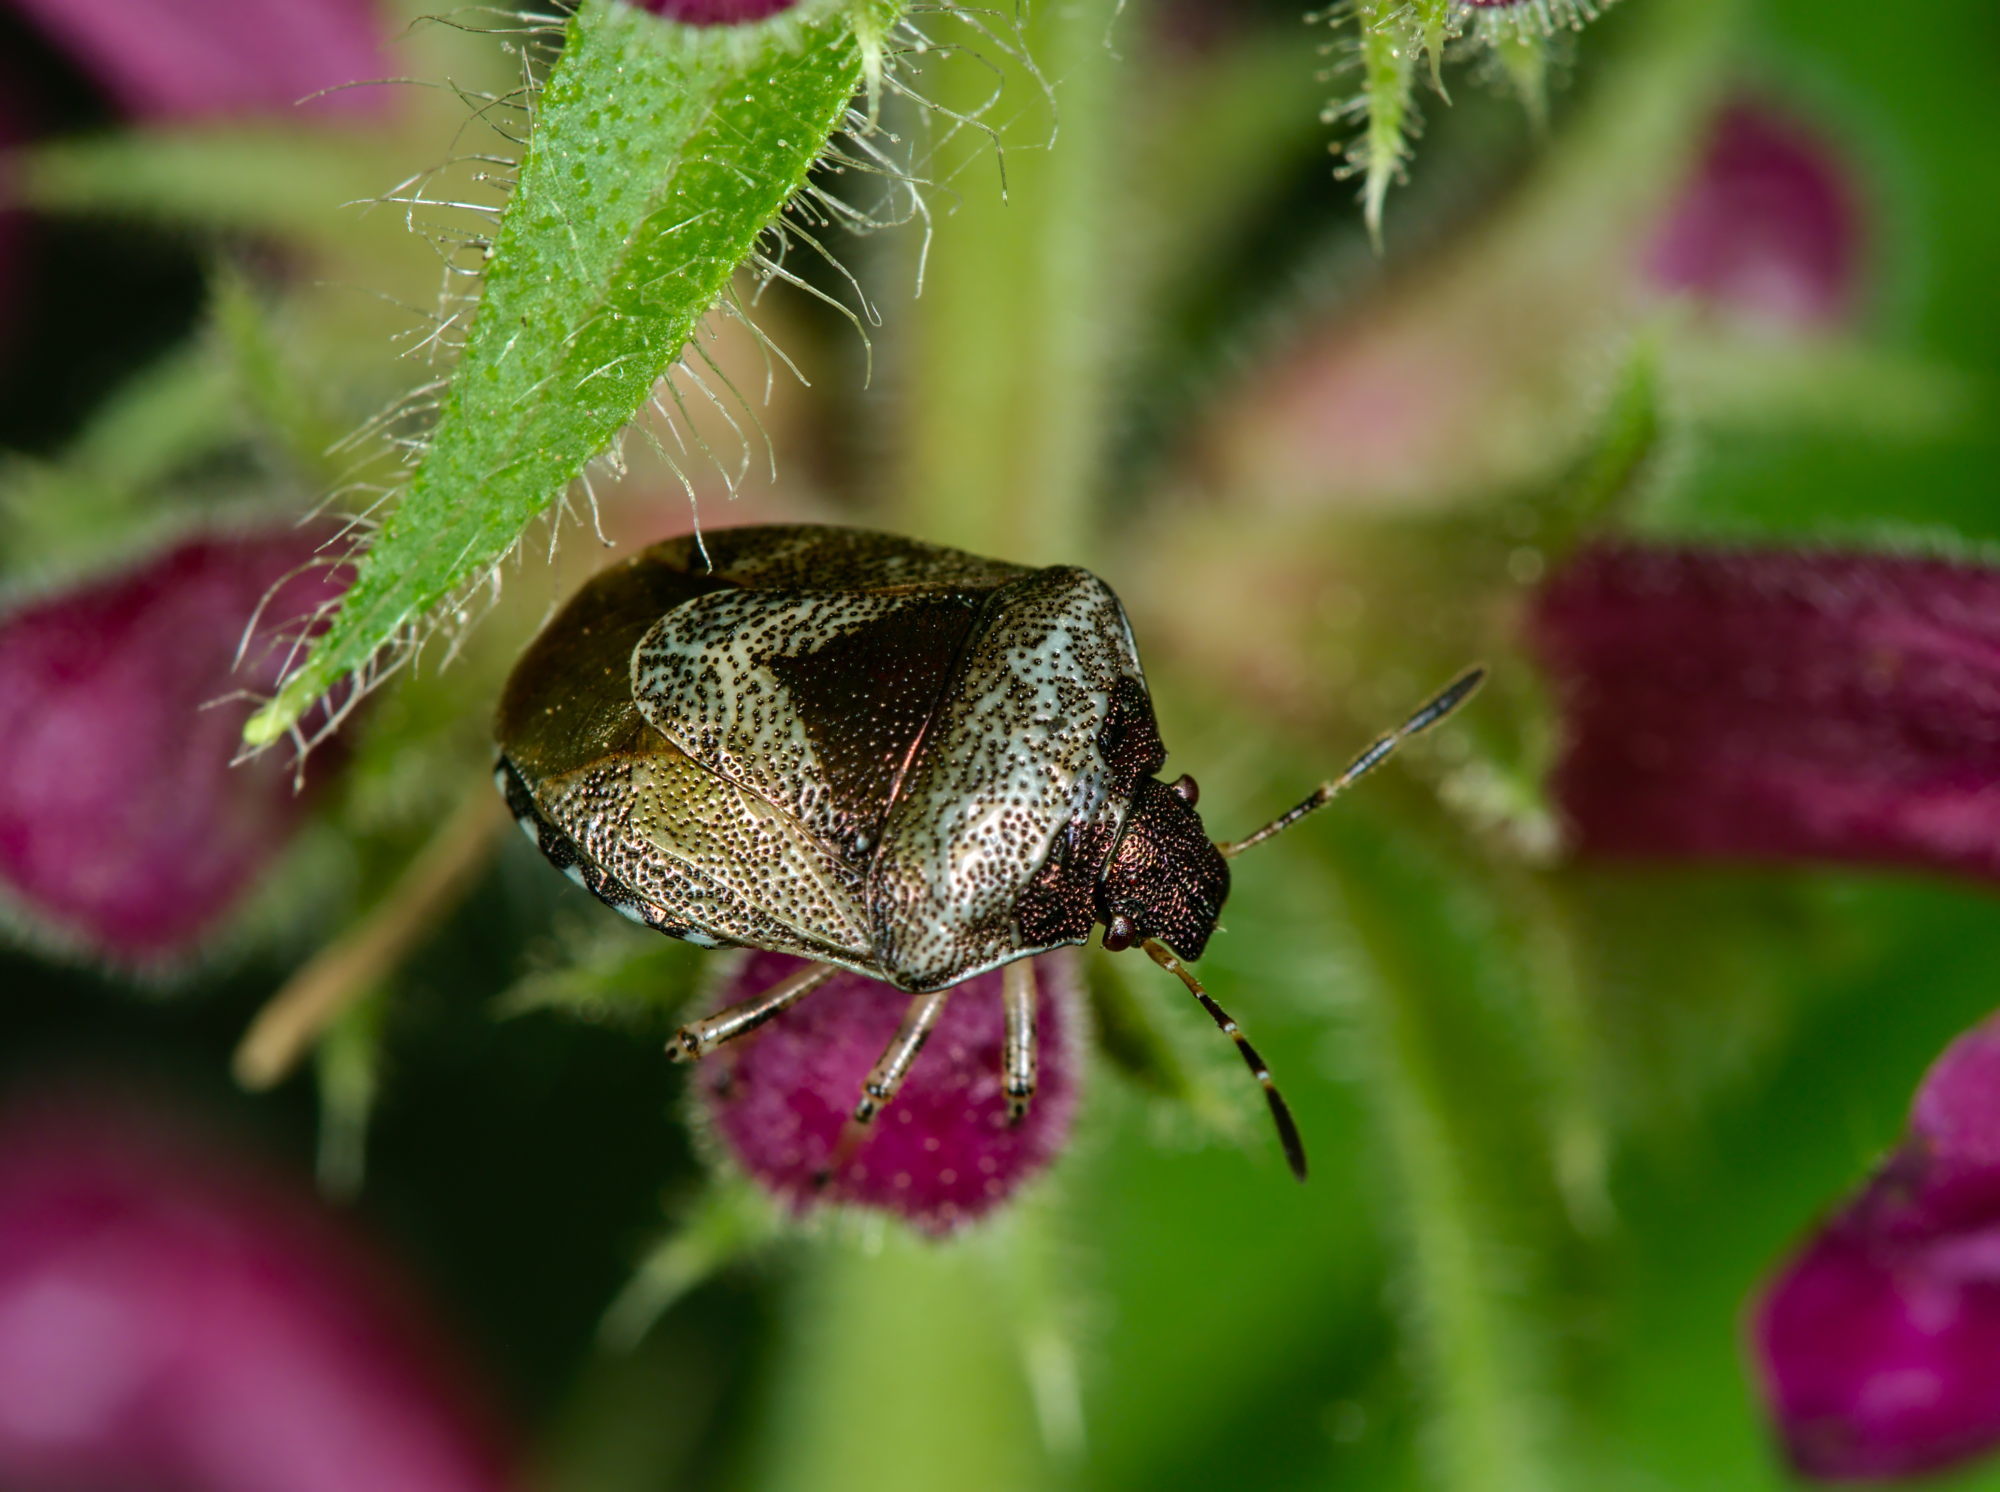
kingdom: Animalia
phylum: Arthropoda
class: Insecta
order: Hemiptera
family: Pentatomidae
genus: Eysarcoris
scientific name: Eysarcoris venustissimus
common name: Woundwort shieldbug
